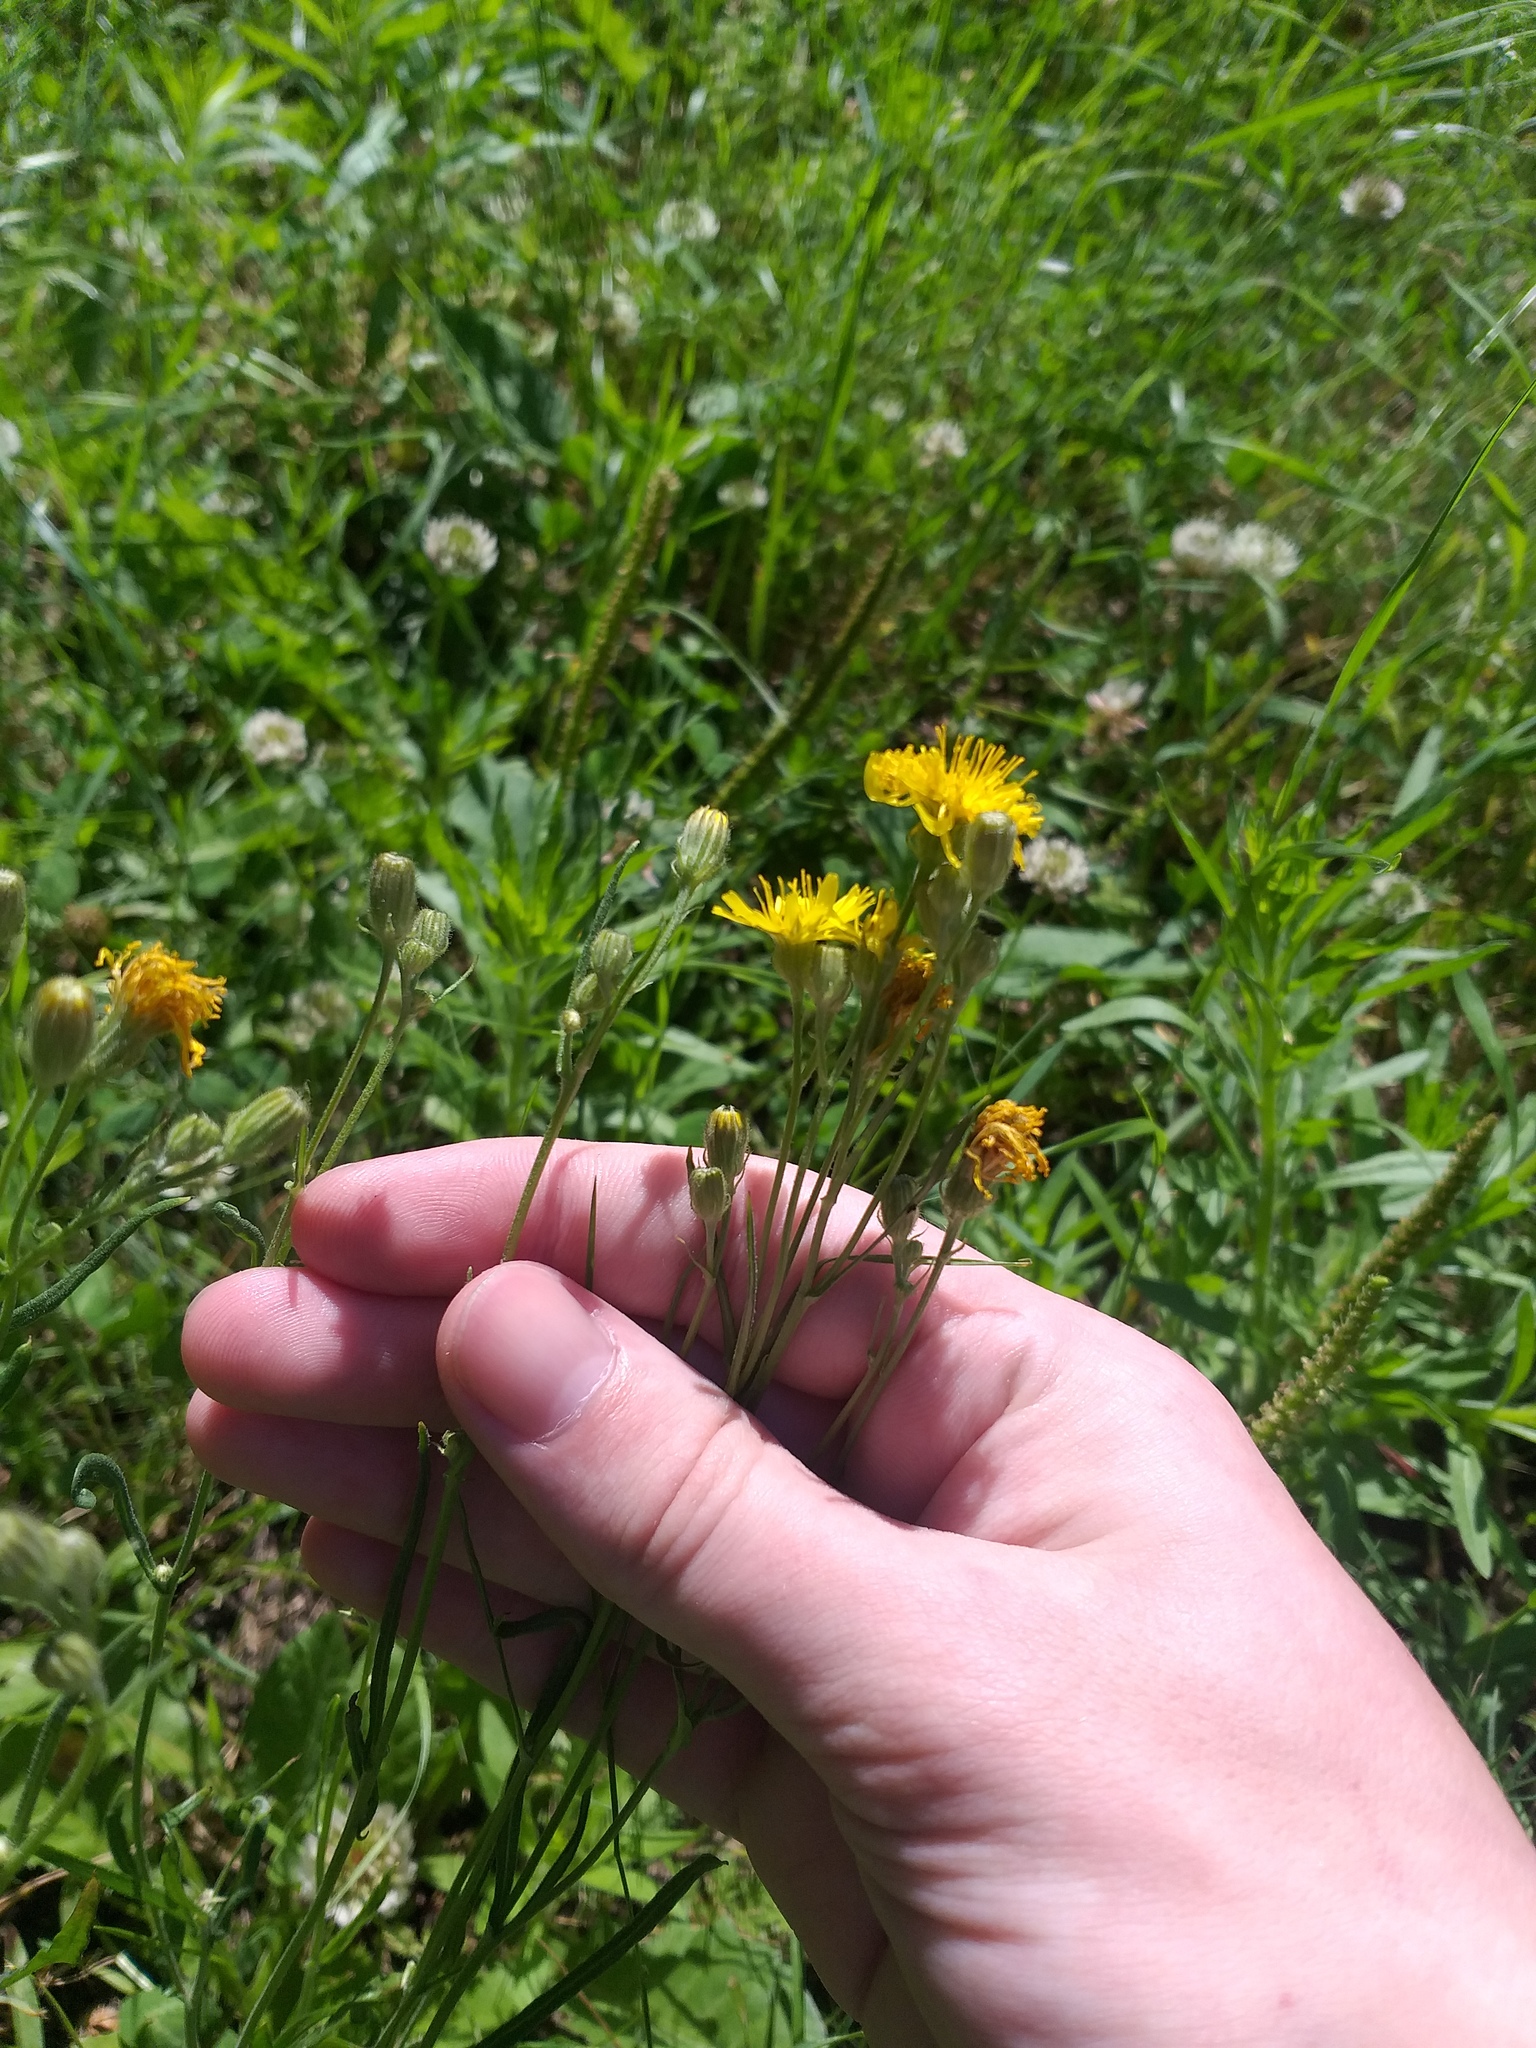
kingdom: Plantae
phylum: Tracheophyta
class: Magnoliopsida
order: Asterales
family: Asteraceae
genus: Crepis
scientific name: Crepis tectorum
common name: Narrow-leaved hawk's-beard
